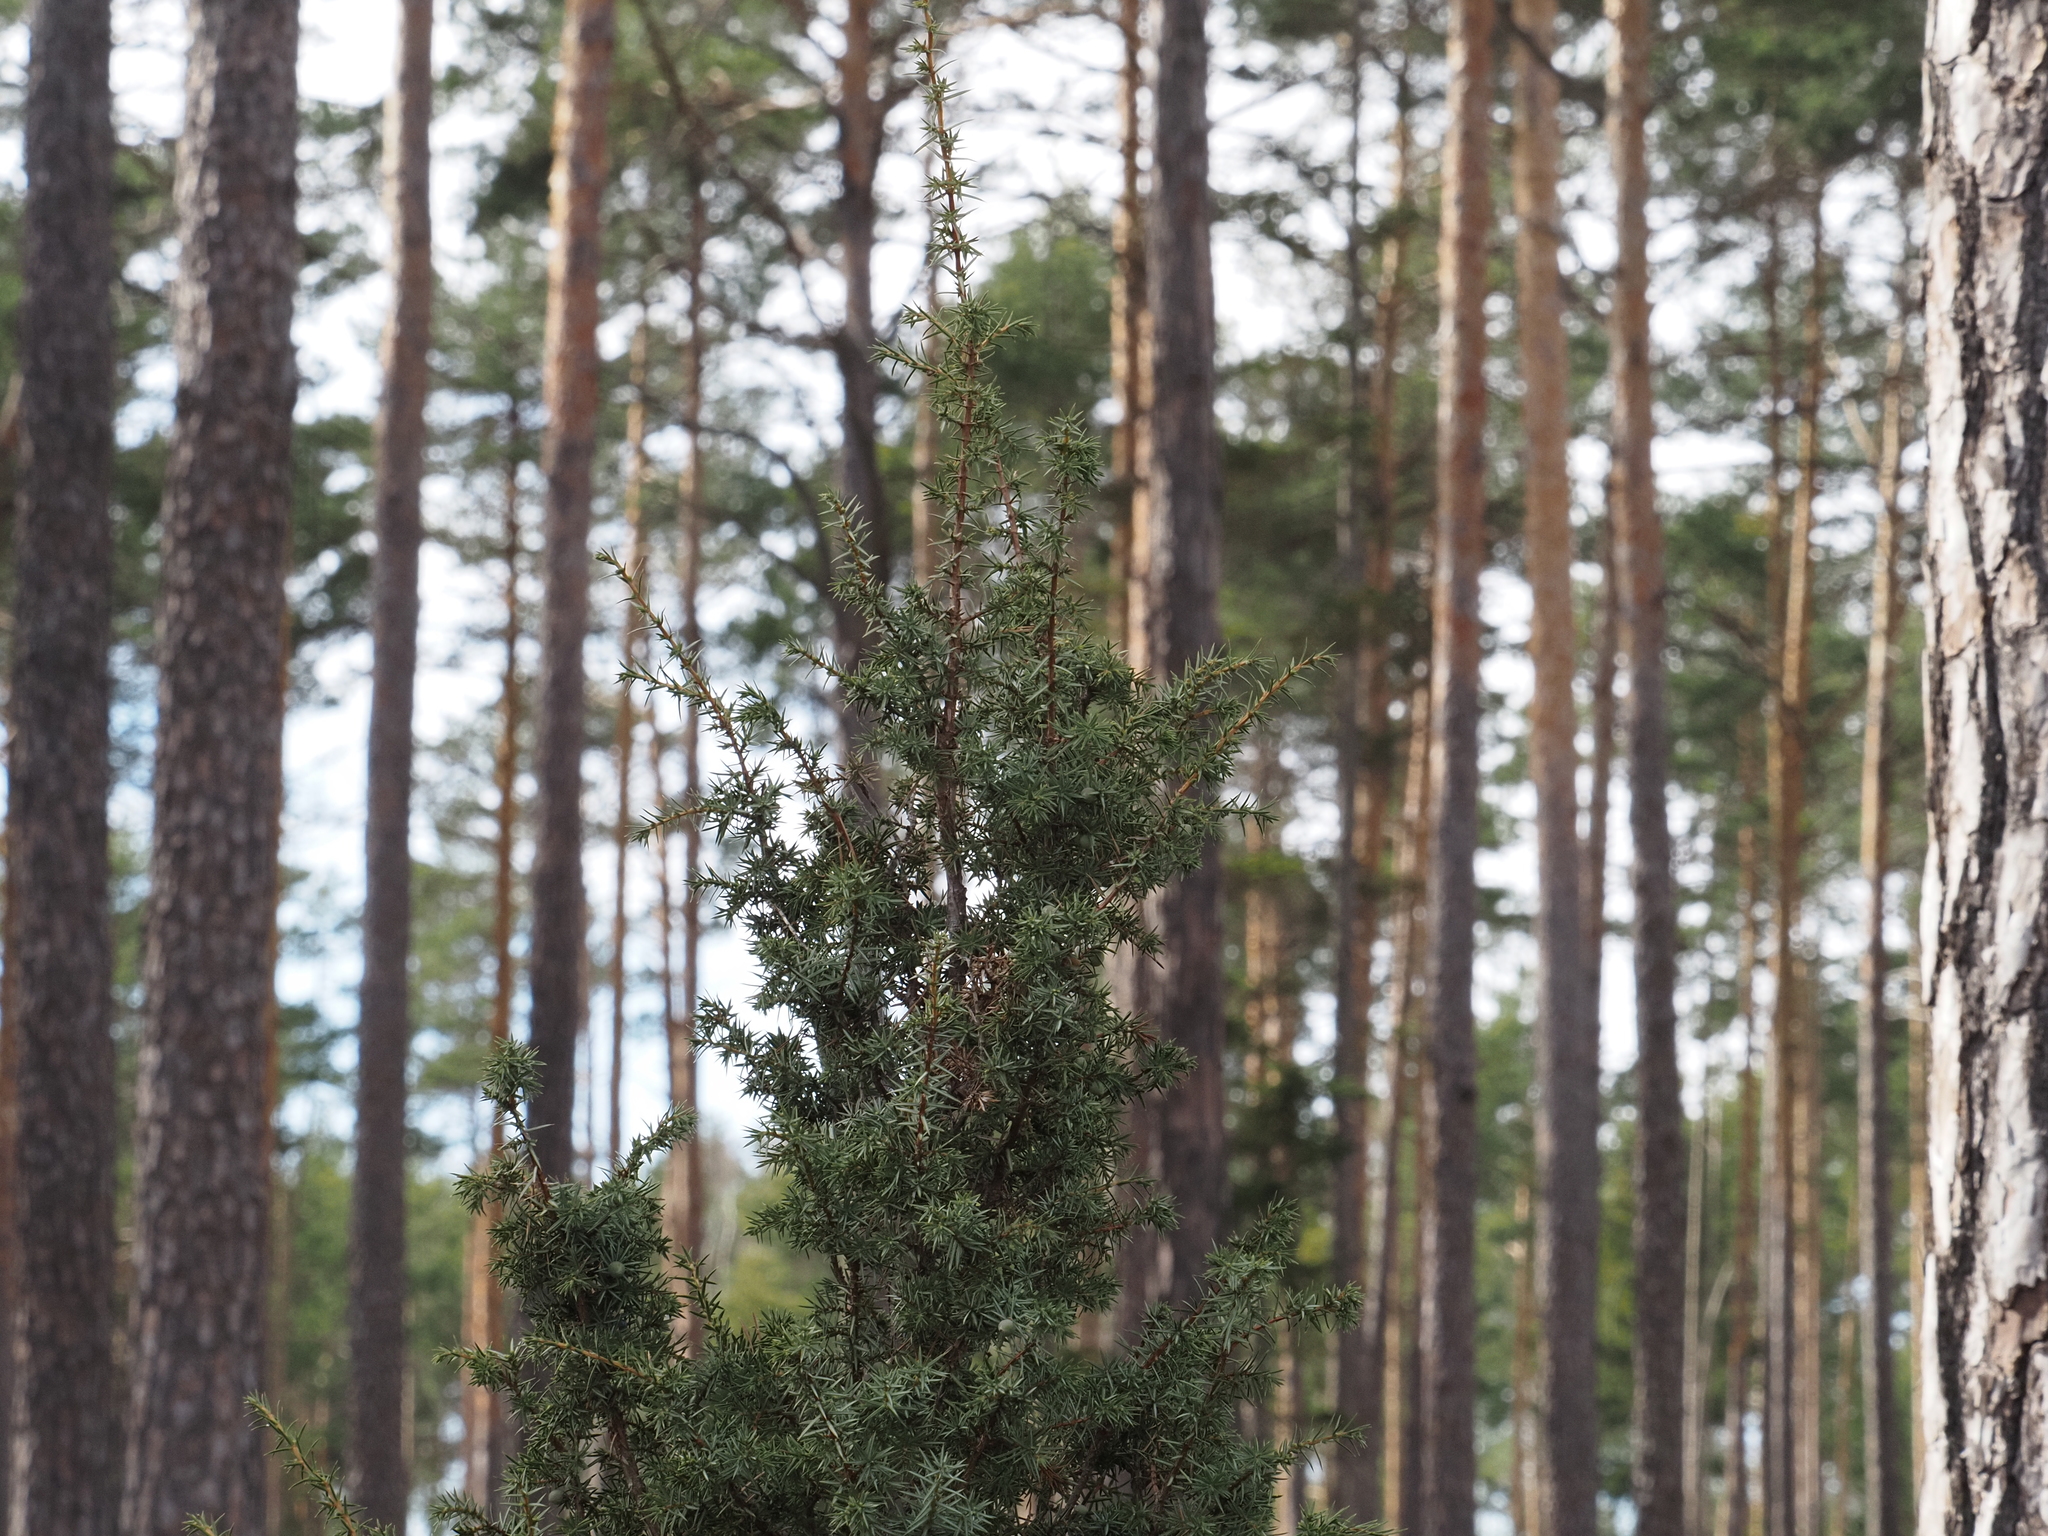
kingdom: Plantae
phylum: Tracheophyta
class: Pinopsida
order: Pinales
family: Cupressaceae
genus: Juniperus
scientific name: Juniperus communis
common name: Common juniper
